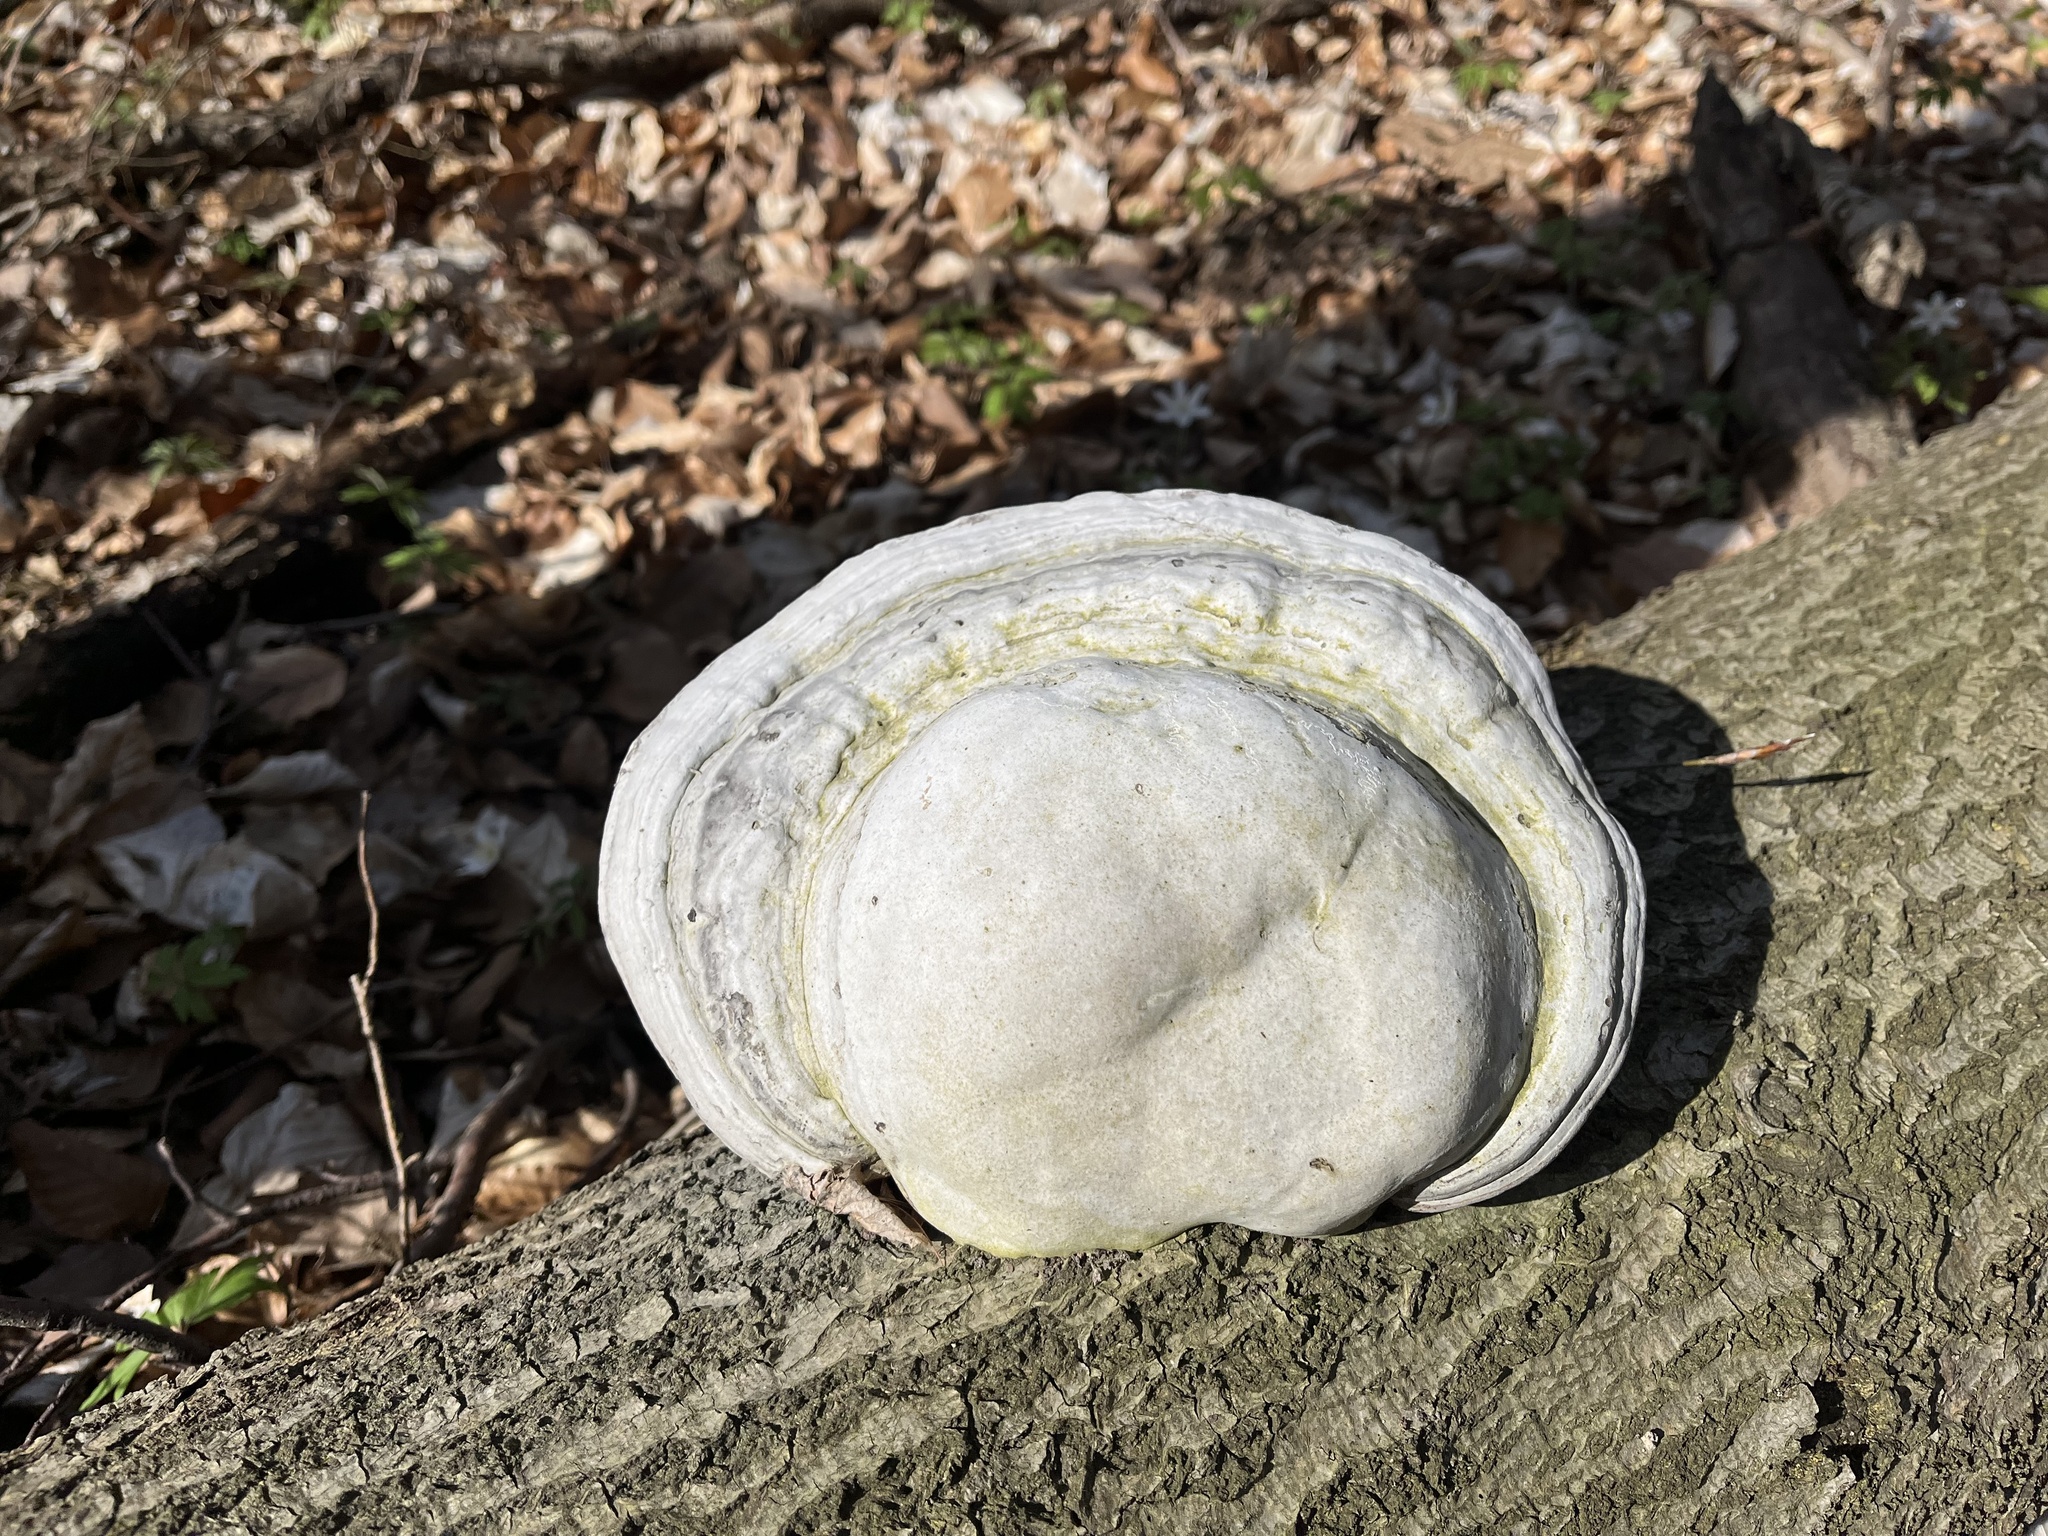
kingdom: Fungi
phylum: Basidiomycota
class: Agaricomycetes
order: Polyporales
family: Polyporaceae
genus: Fomes
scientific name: Fomes fomentarius
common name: Hoof fungus
